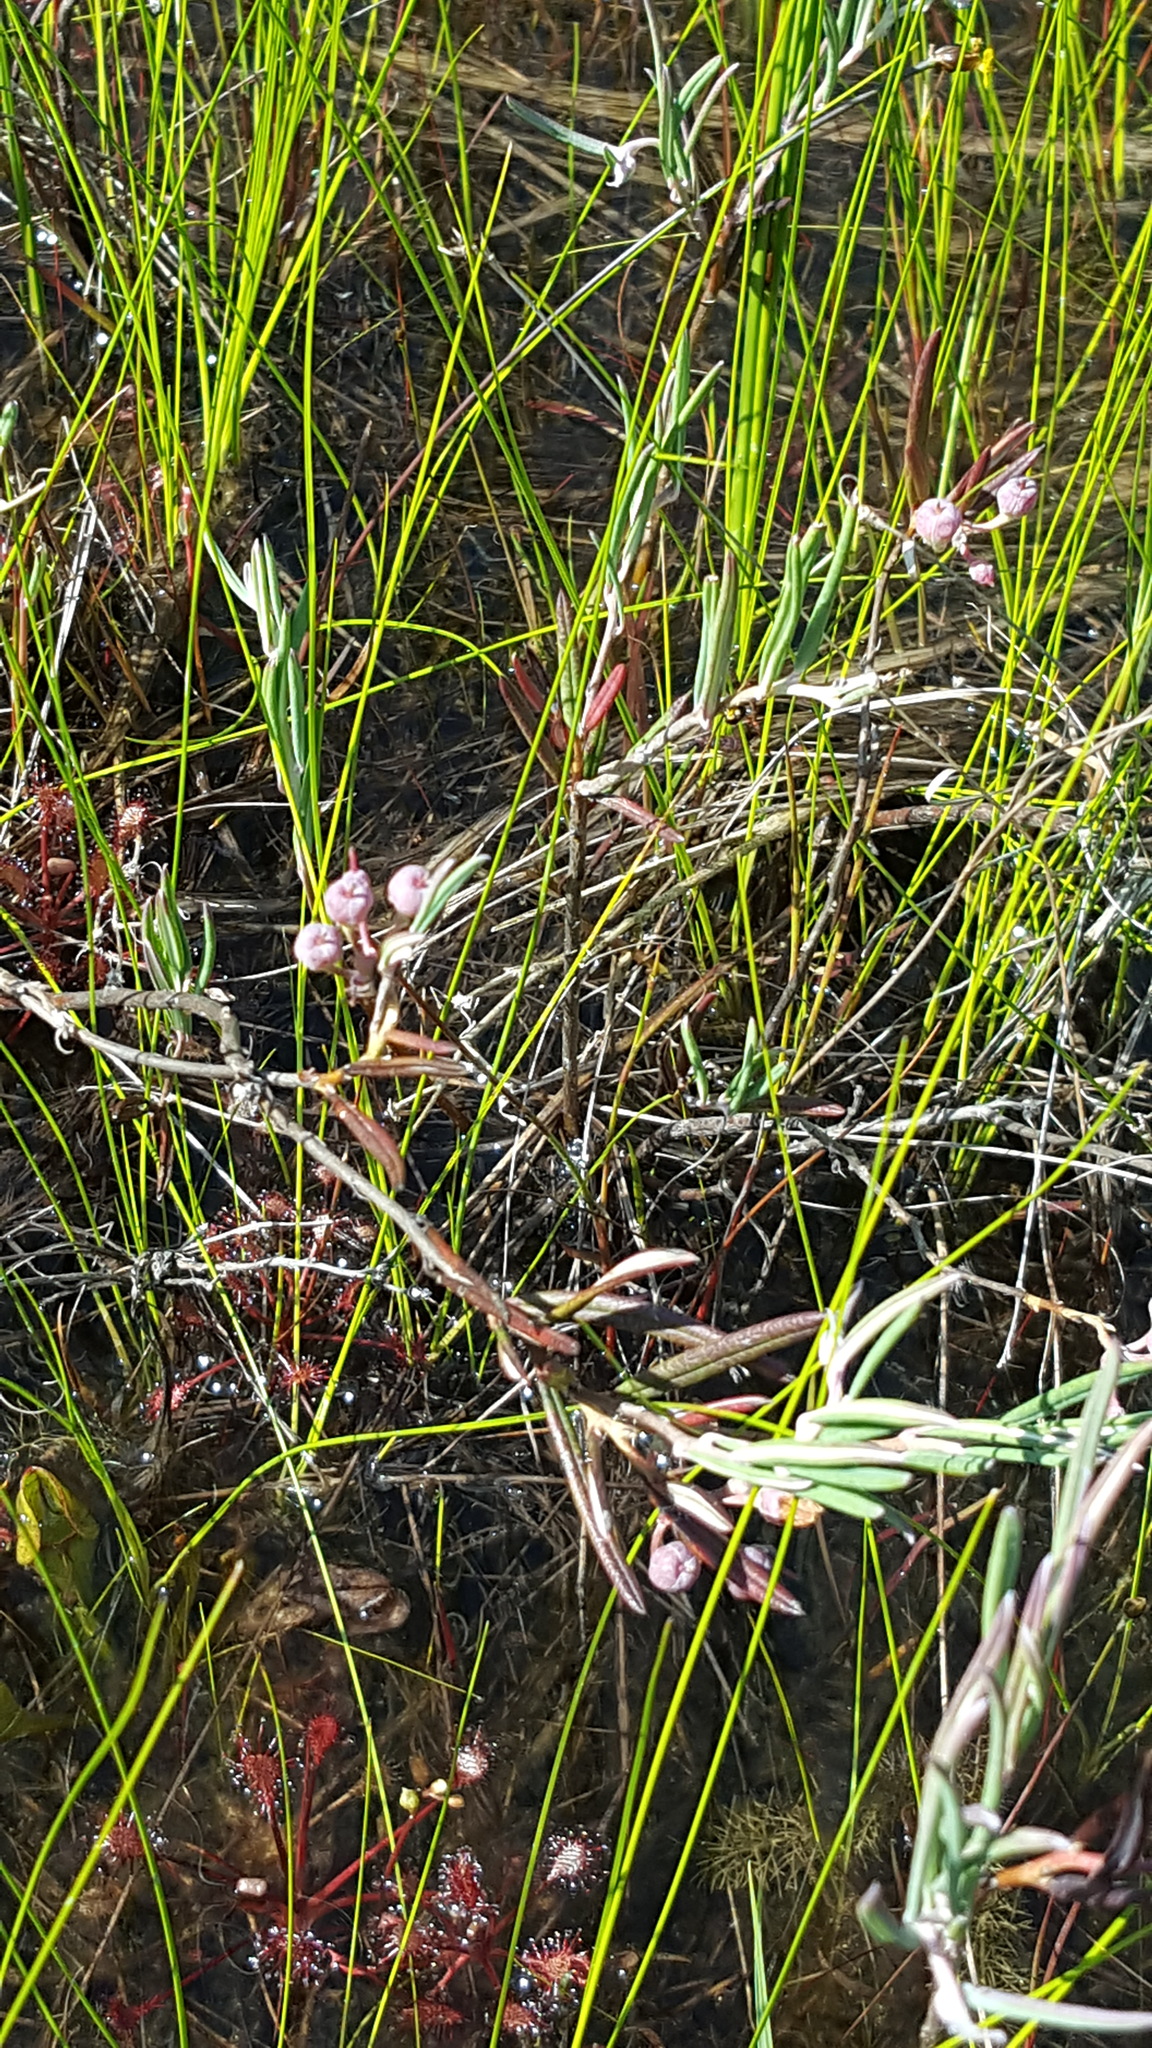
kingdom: Plantae
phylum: Tracheophyta
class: Magnoliopsida
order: Ericales
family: Ericaceae
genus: Andromeda
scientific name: Andromeda polifolia
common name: Bog-rosemary
